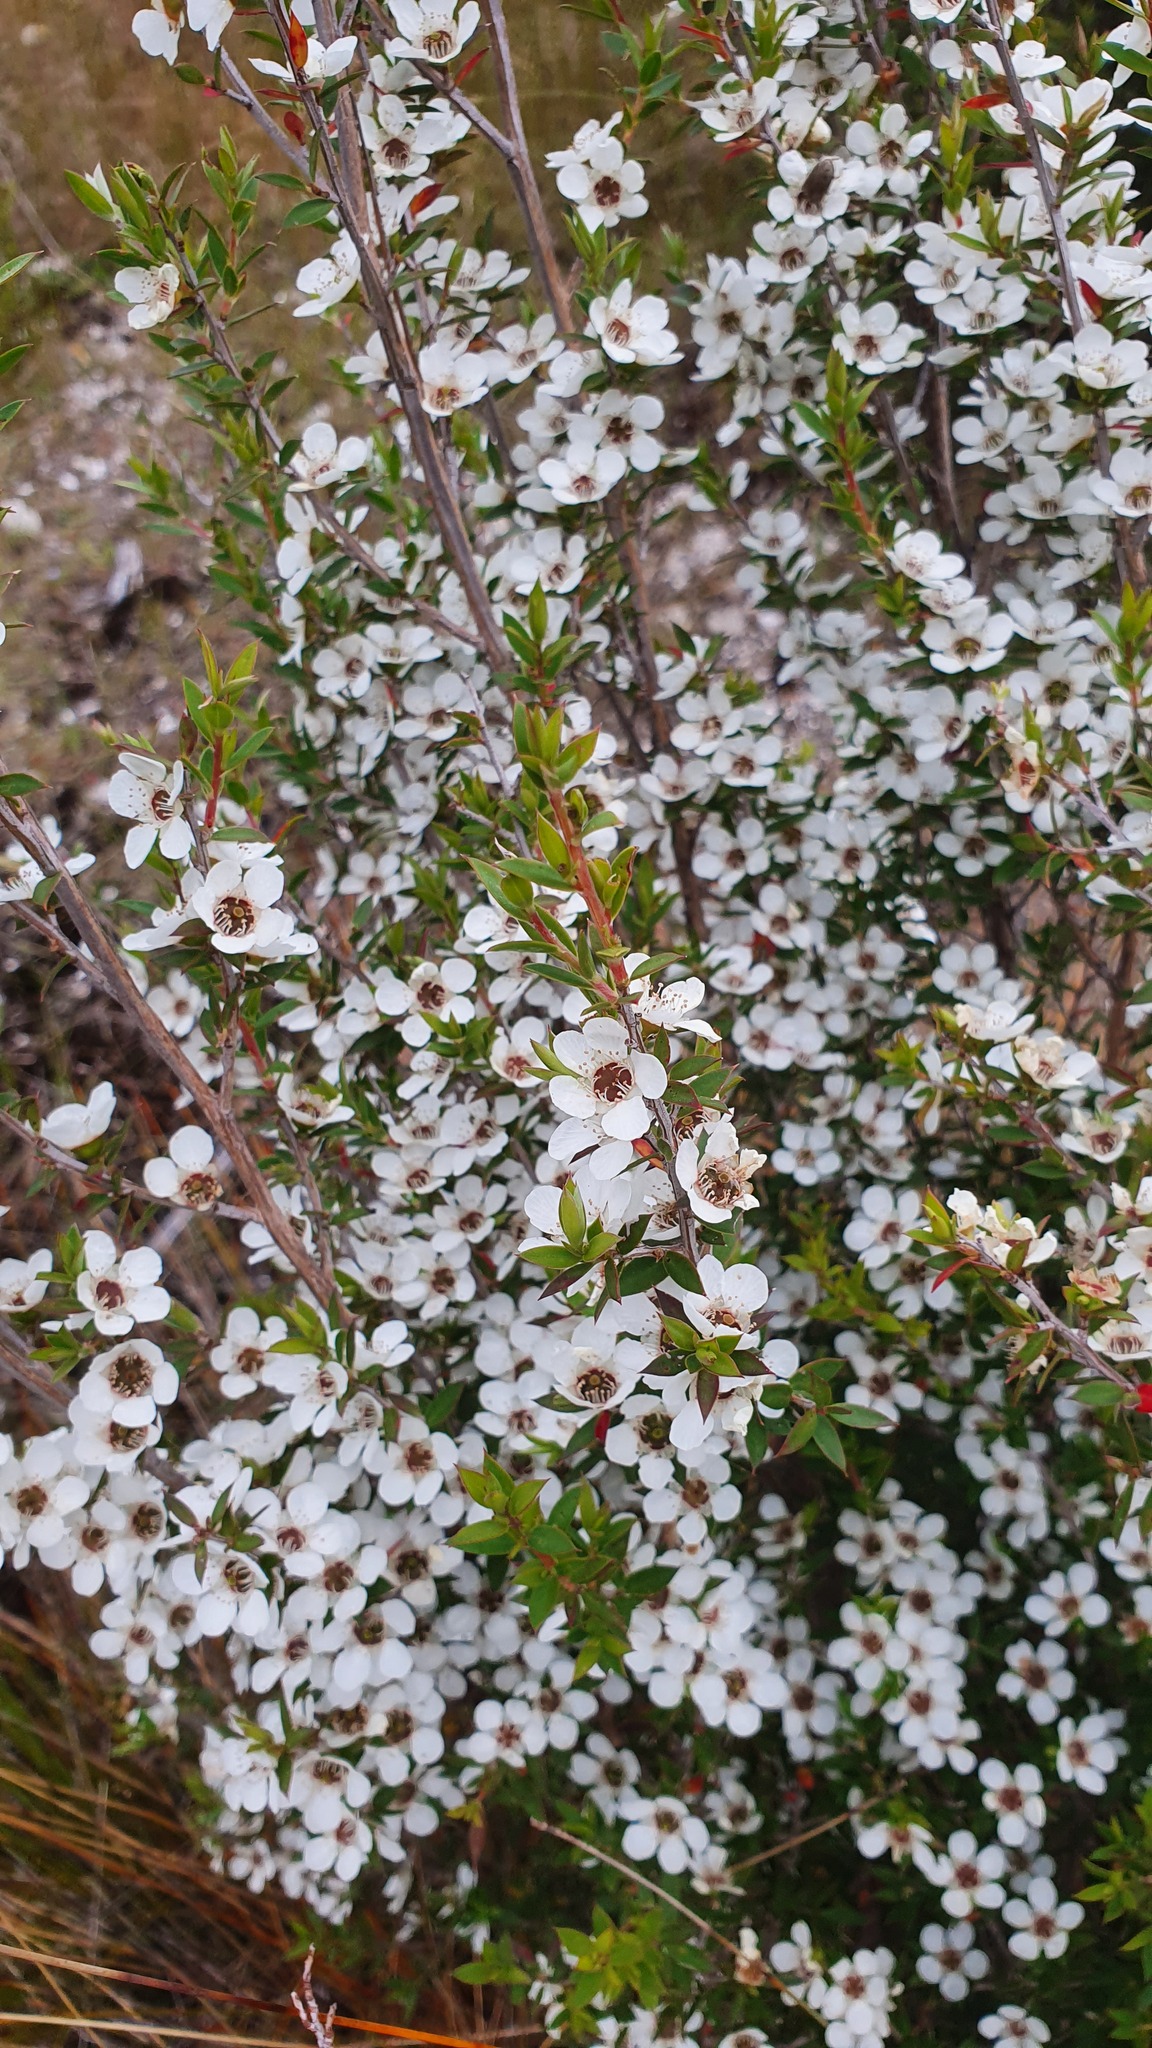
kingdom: Plantae
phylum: Tracheophyta
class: Magnoliopsida
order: Myrtales
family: Myrtaceae
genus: Leptospermum
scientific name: Leptospermum scoparium
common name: Broom tea-tree
